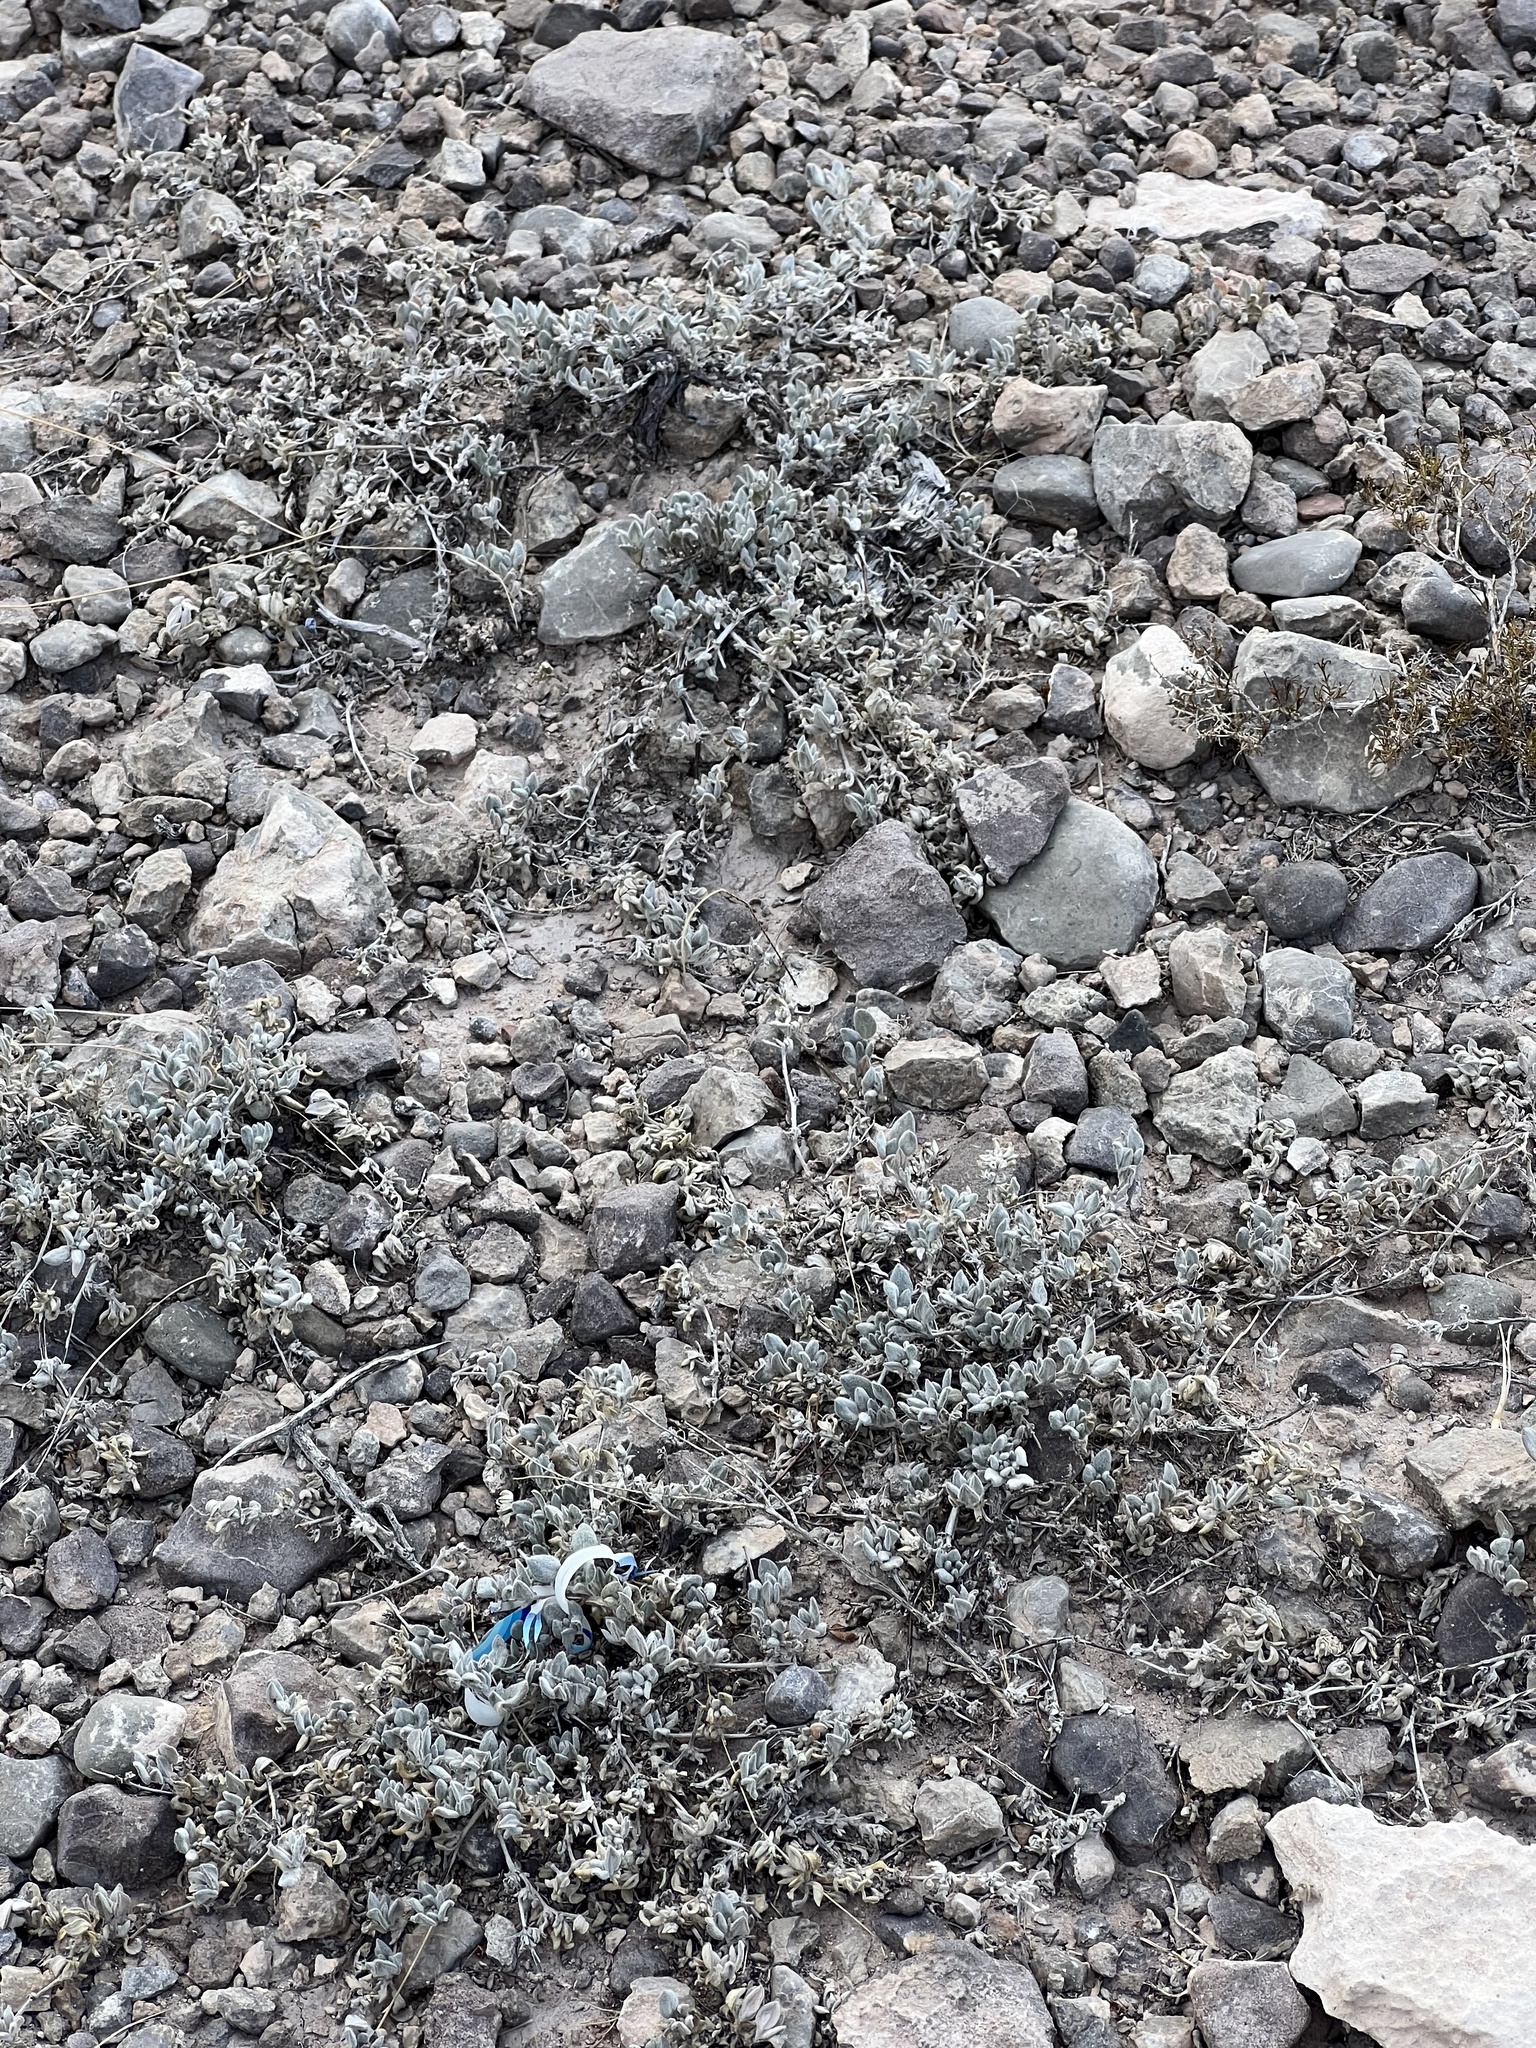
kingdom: Plantae
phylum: Tracheophyta
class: Magnoliopsida
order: Boraginales
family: Ehretiaceae
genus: Tiquilia
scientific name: Tiquilia canescens
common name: Hairy tiquilia
